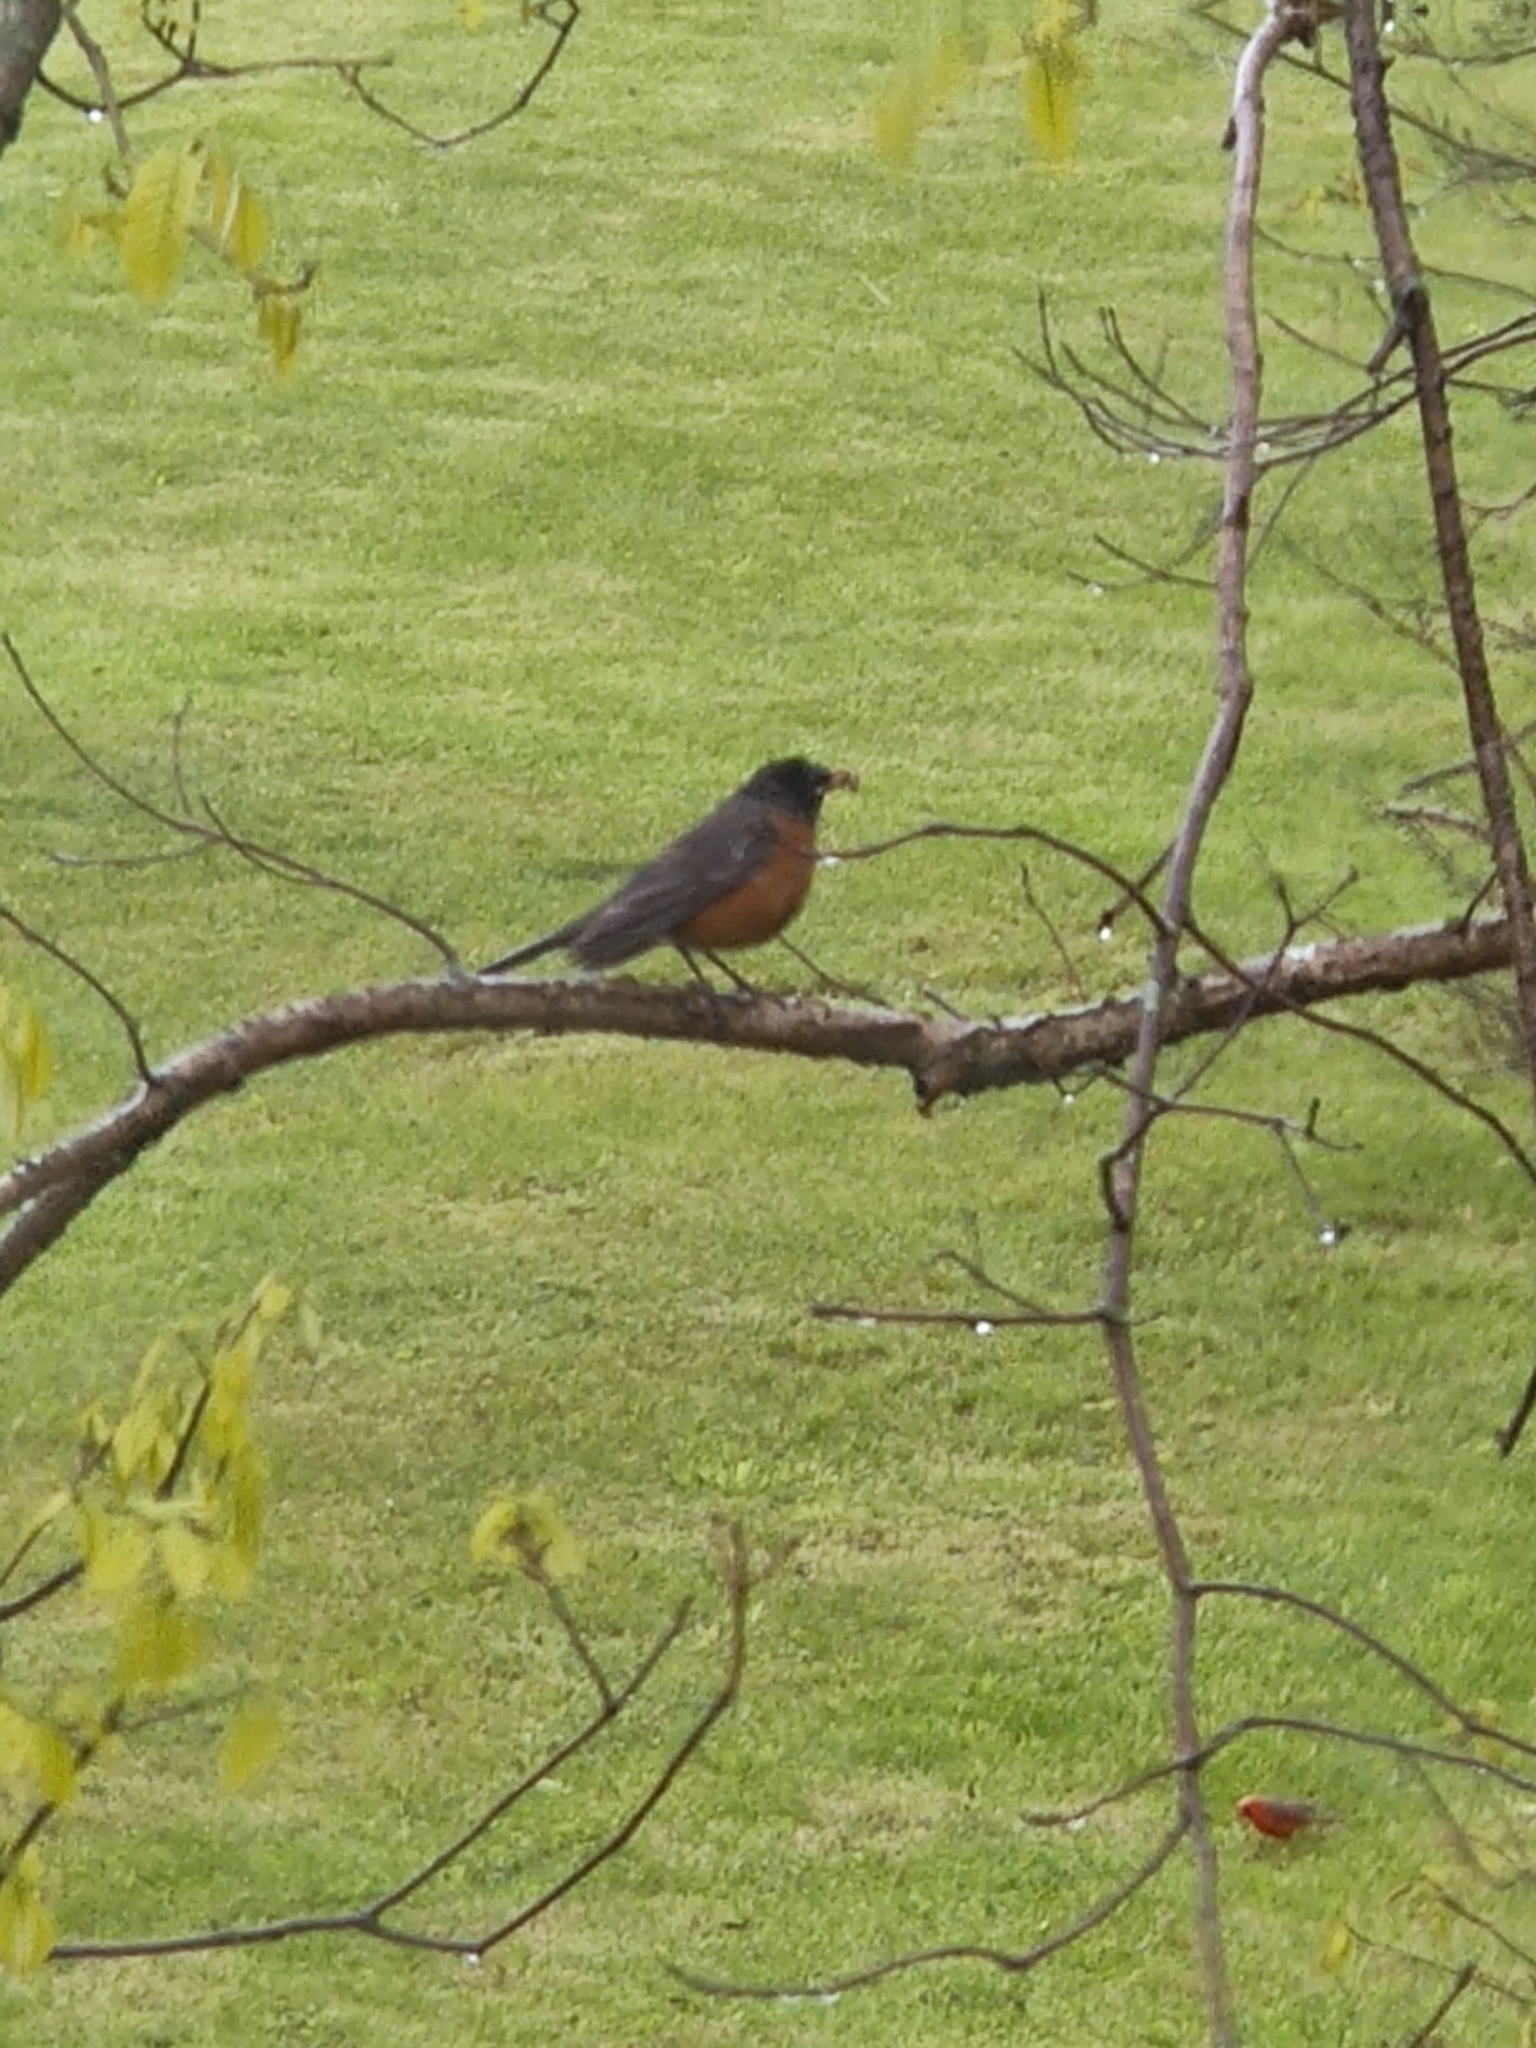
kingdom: Animalia
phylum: Chordata
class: Aves
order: Passeriformes
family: Turdidae
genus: Turdus
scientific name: Turdus migratorius
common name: American robin
